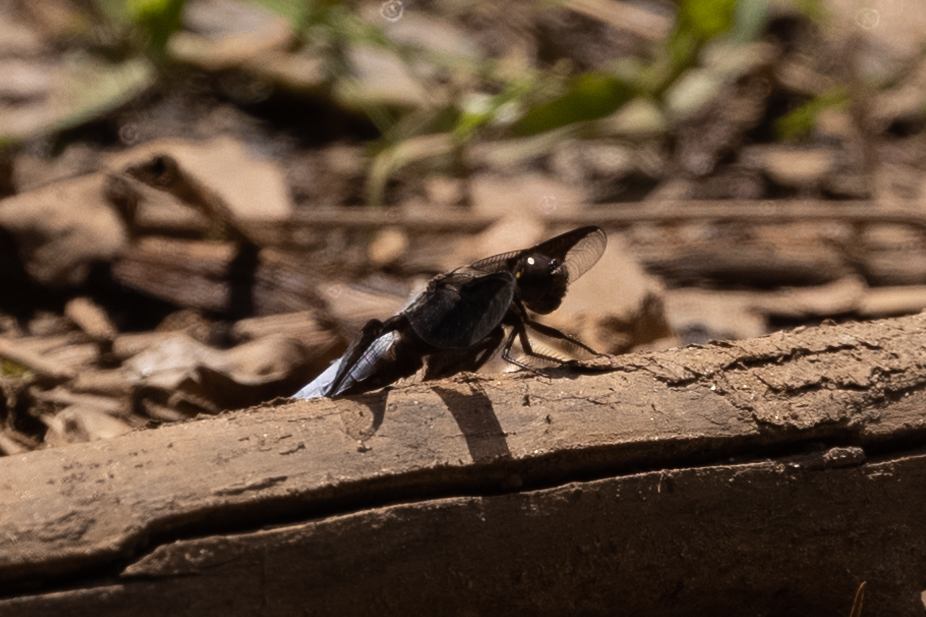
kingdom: Animalia
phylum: Arthropoda
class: Insecta
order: Odonata
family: Libellulidae
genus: Plathemis
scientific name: Plathemis lydia
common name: Common whitetail
